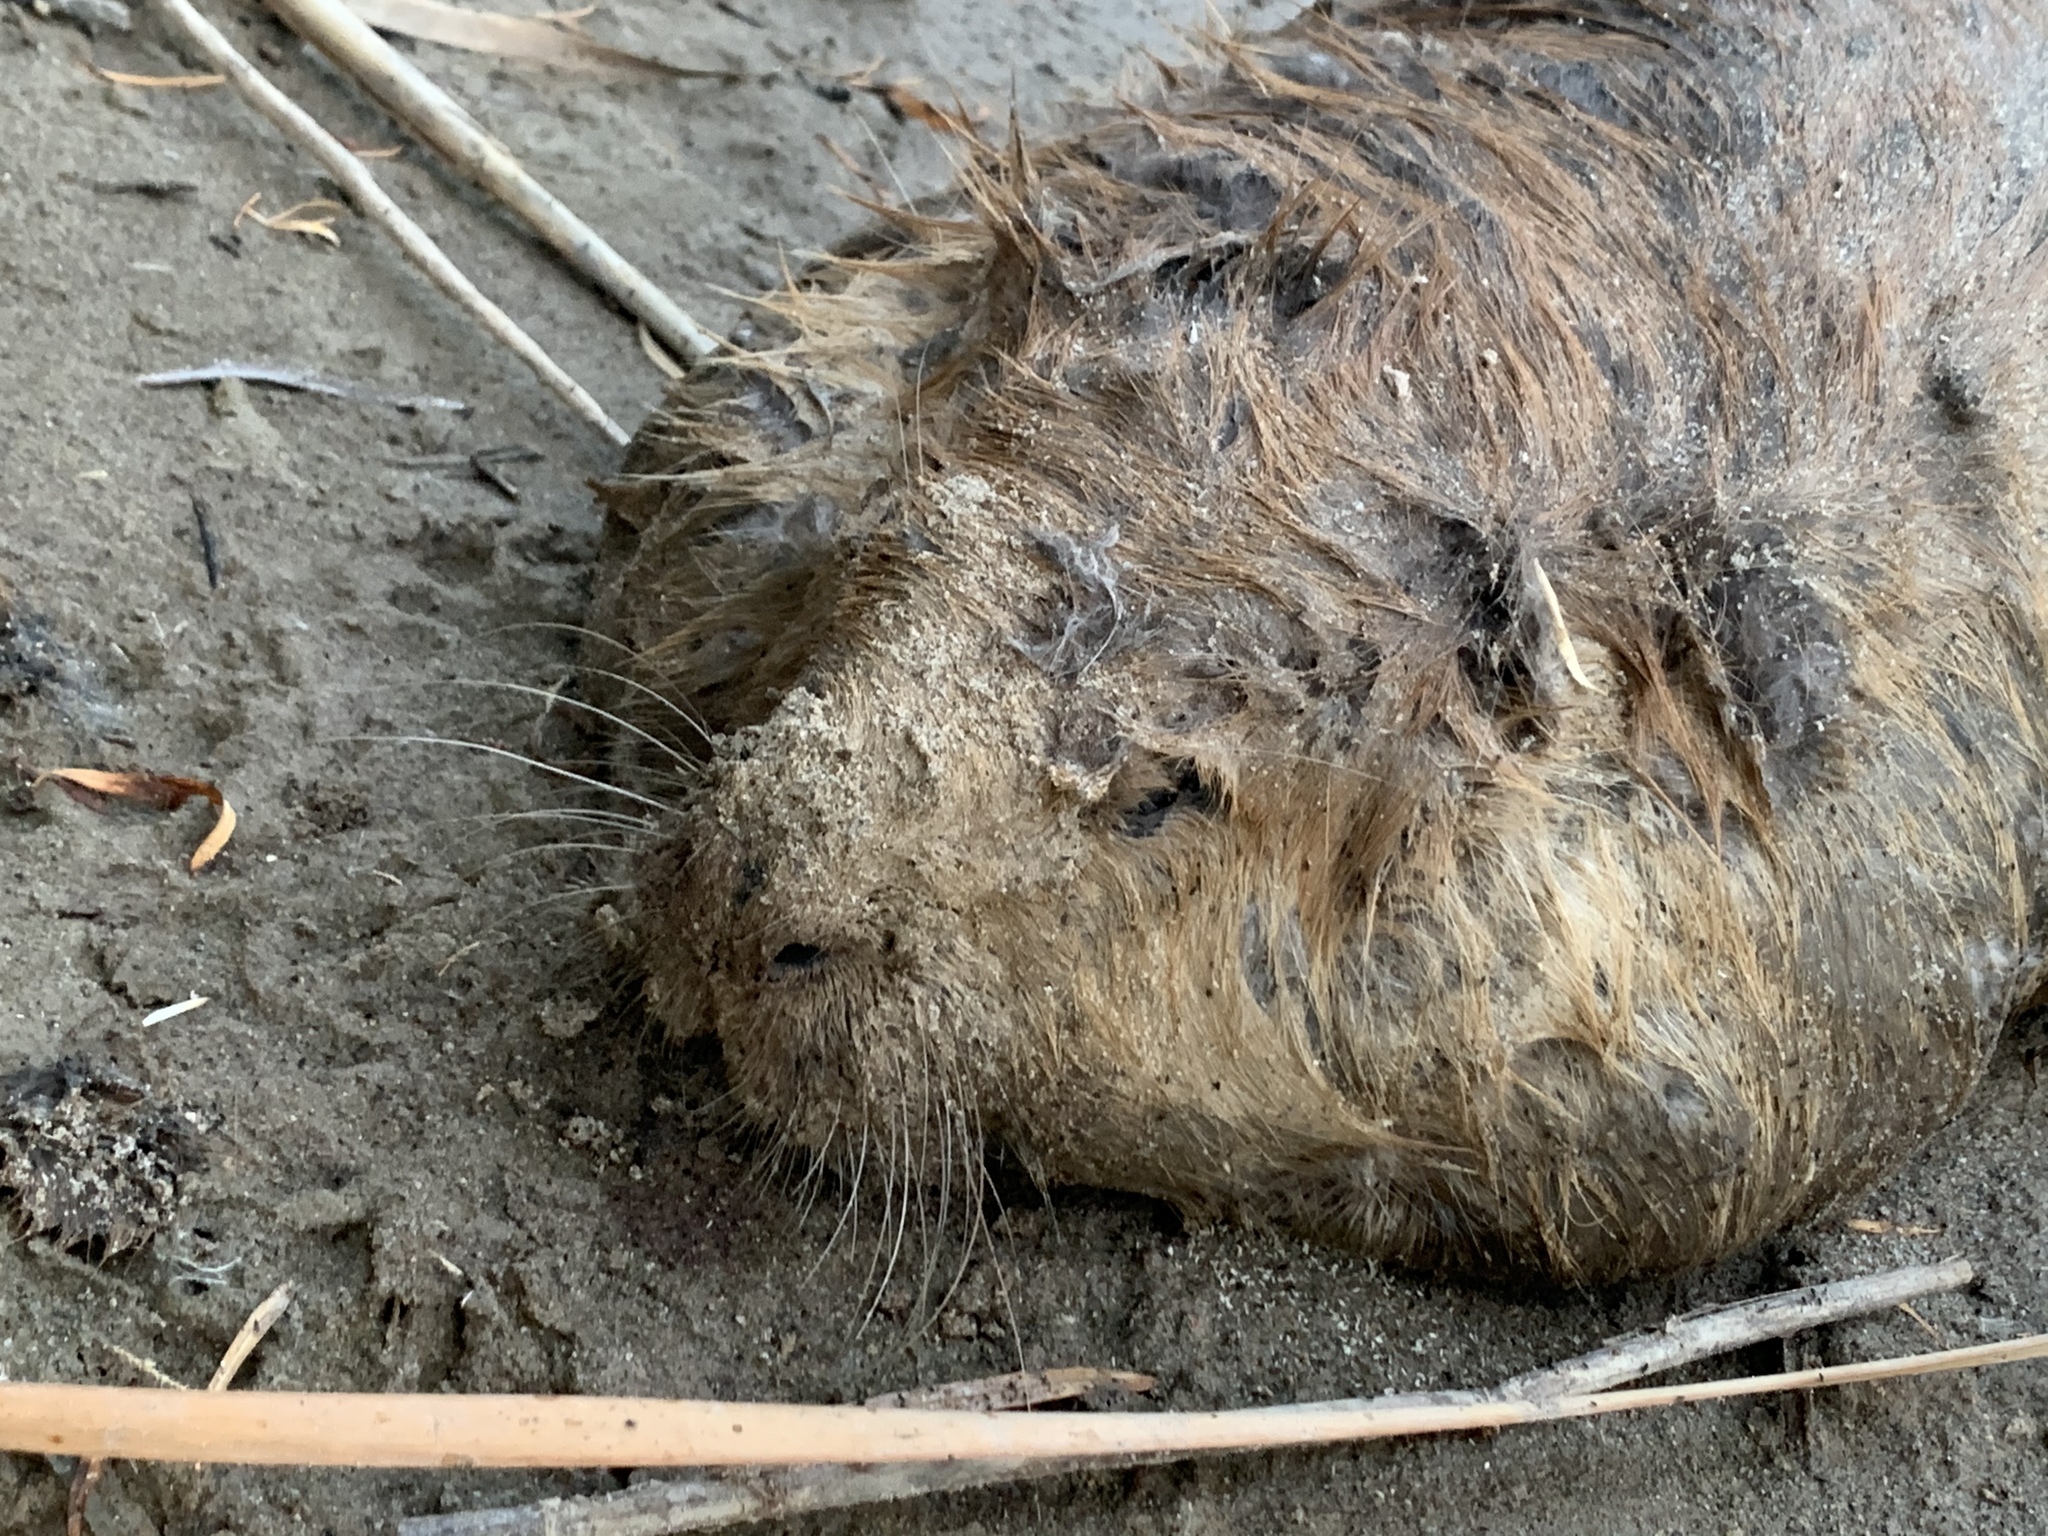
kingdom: Animalia
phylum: Chordata
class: Mammalia
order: Rodentia
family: Castoridae
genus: Castor
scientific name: Castor canadensis
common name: American beaver
